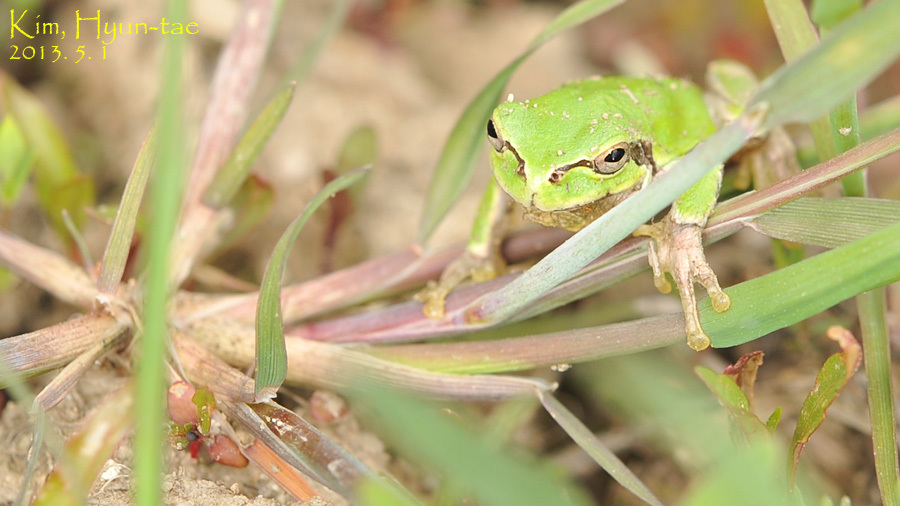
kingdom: Animalia
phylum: Chordata
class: Amphibia
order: Anura
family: Hylidae
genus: Dryophytes
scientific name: Dryophytes japonicus
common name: Japanese treefrog
